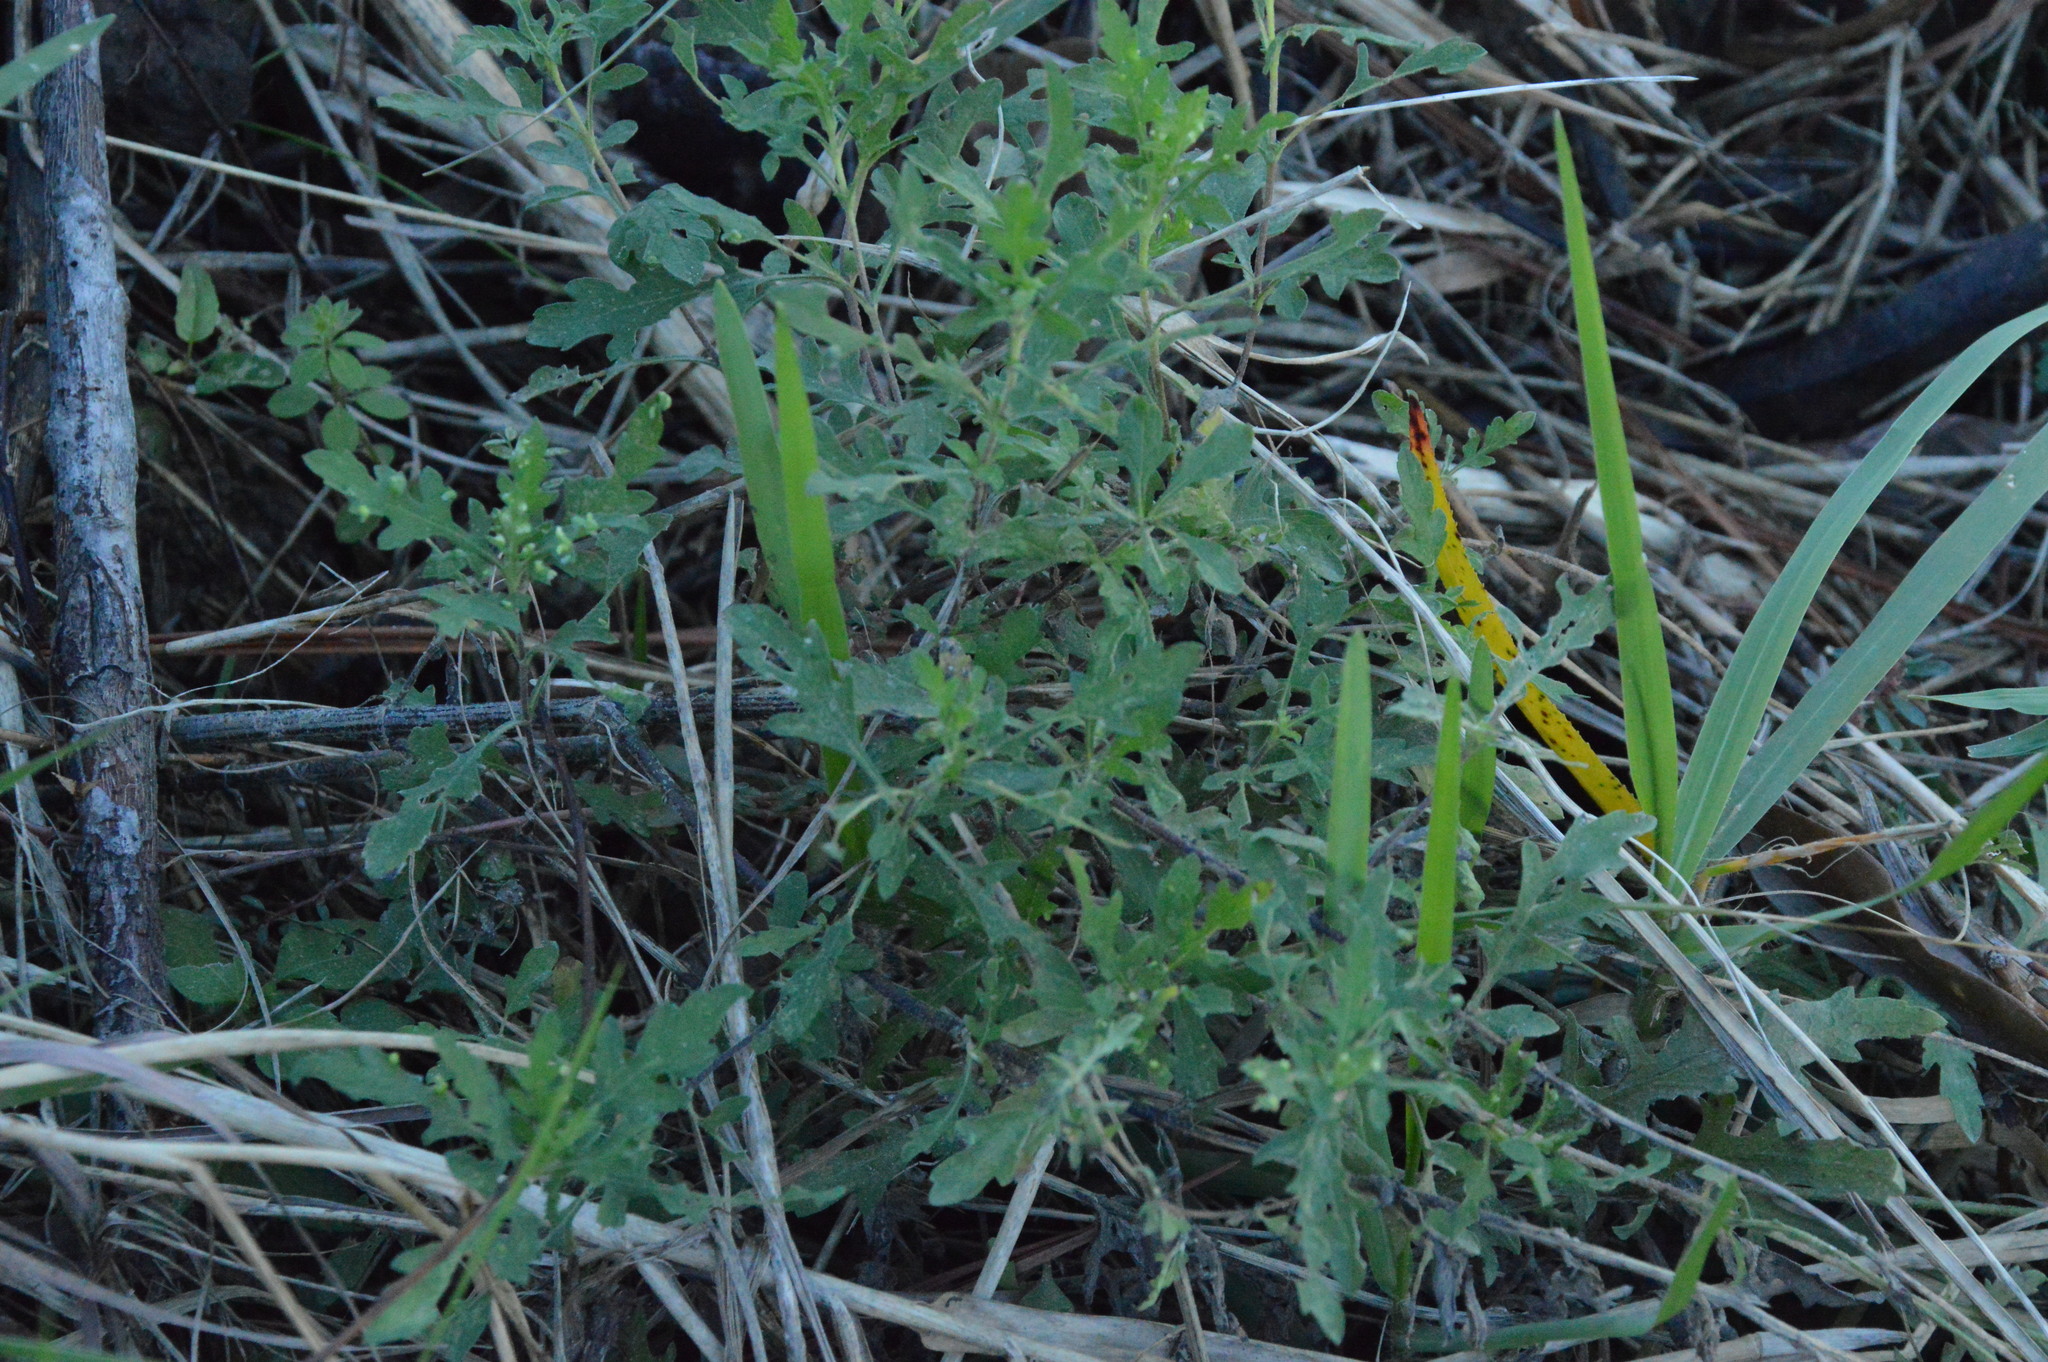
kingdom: Plantae
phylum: Tracheophyta
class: Magnoliopsida
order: Asterales
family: Asteraceae
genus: Ambrosia
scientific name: Ambrosia psilostachya
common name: Perennial ragweed
